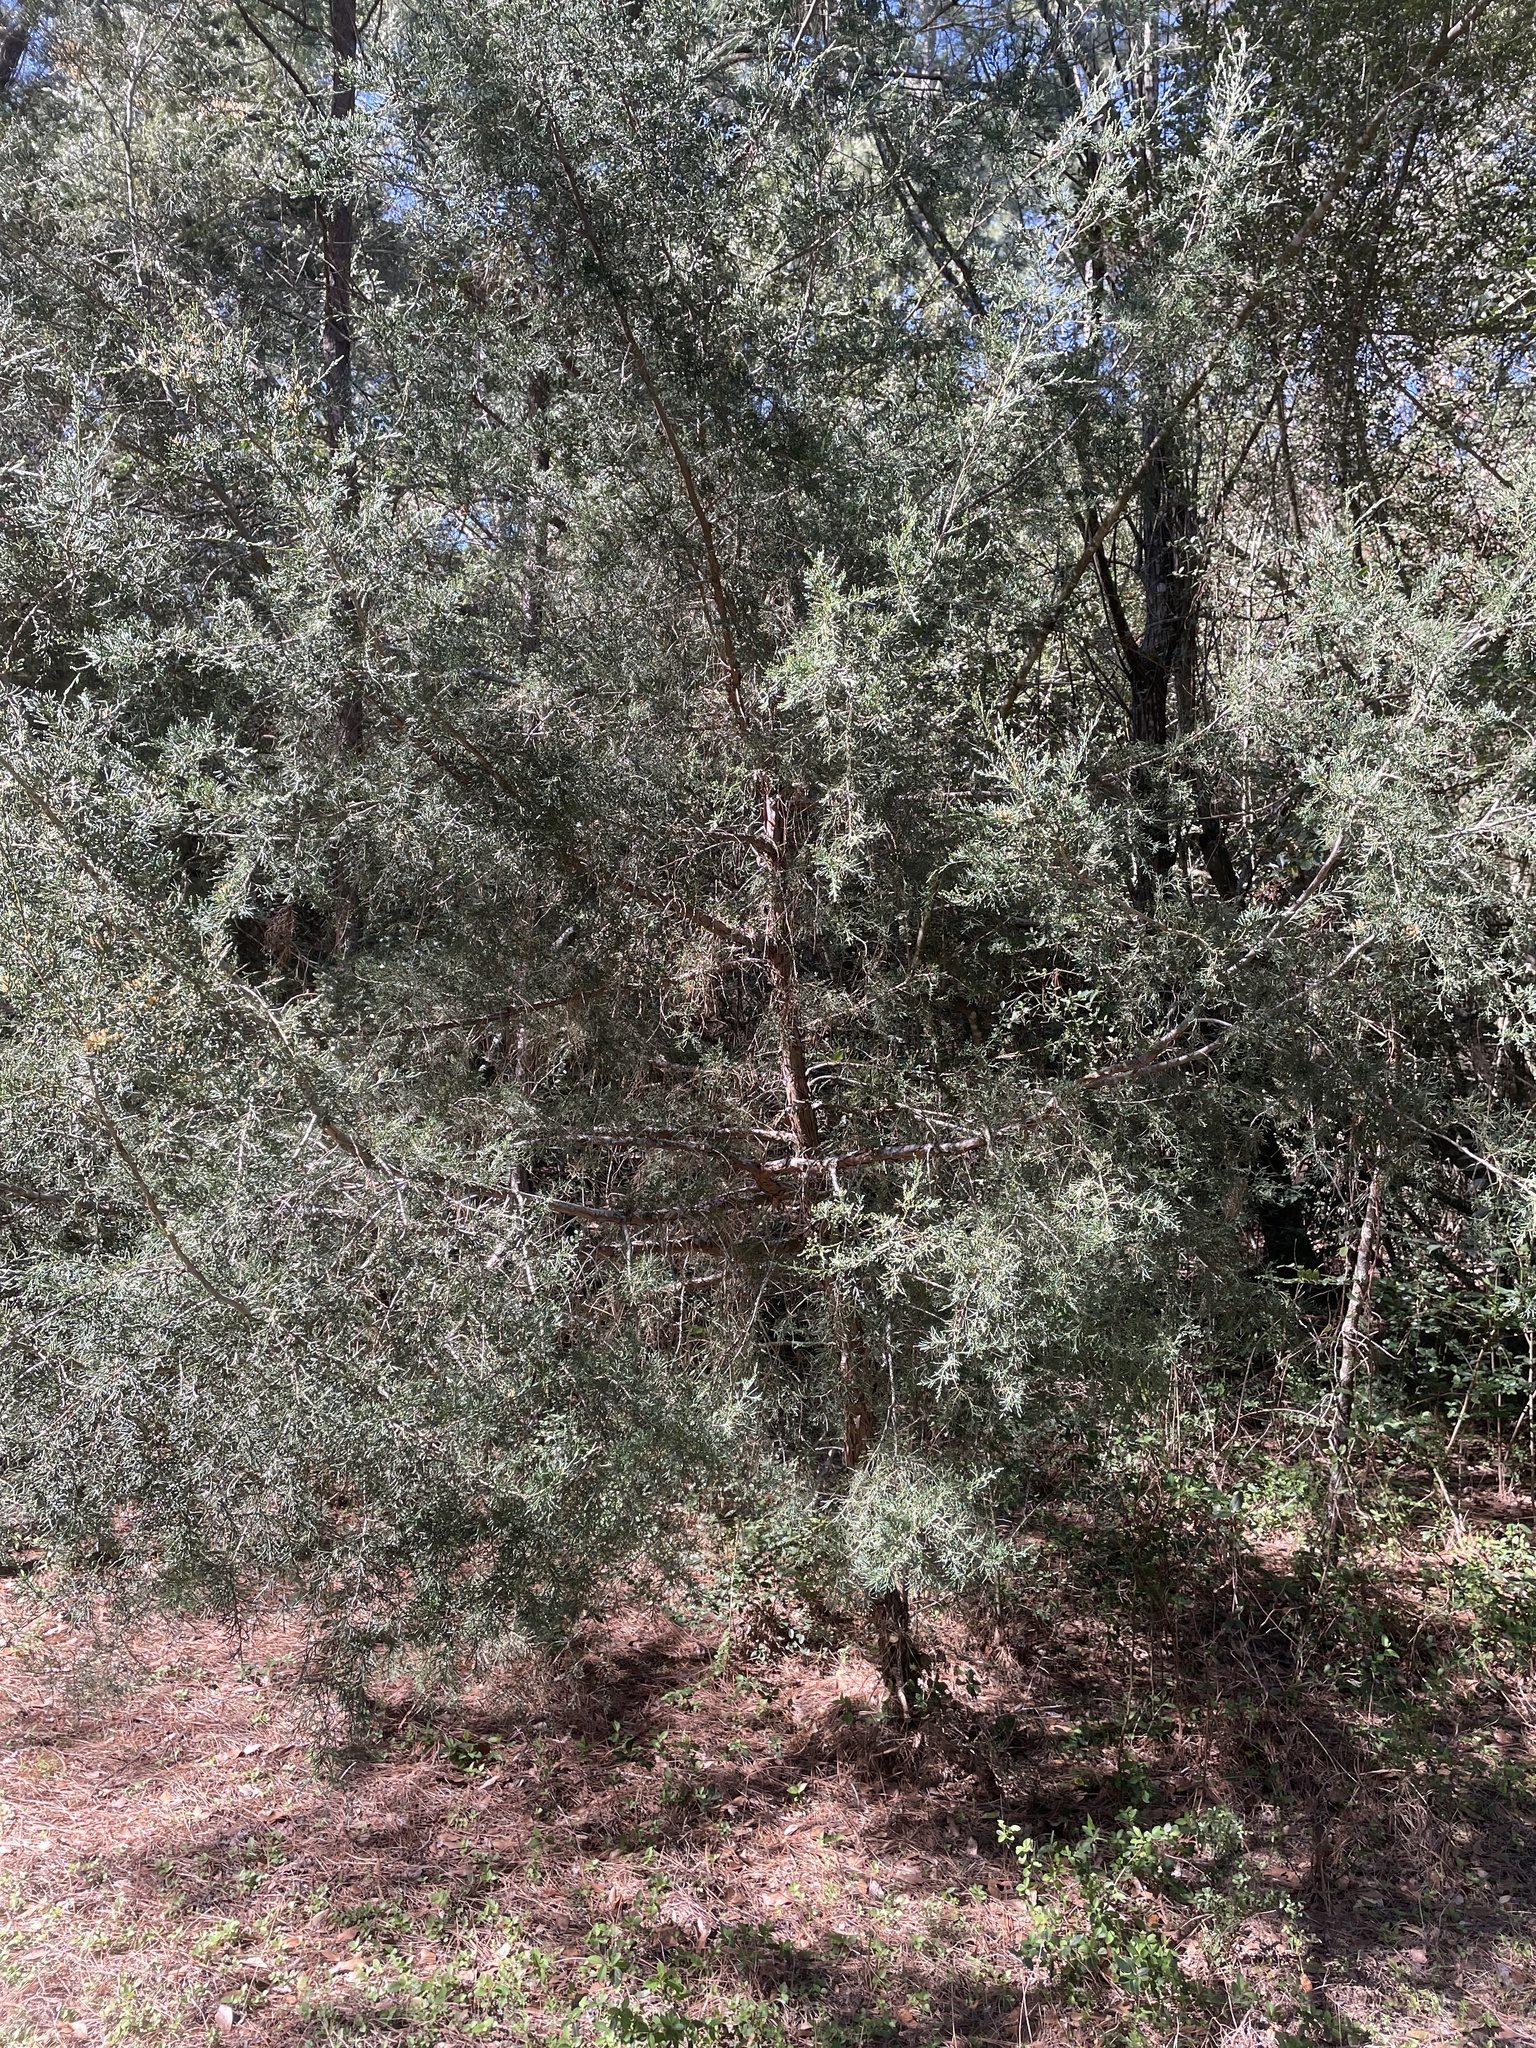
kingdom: Plantae
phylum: Tracheophyta
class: Pinopsida
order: Pinales
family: Cupressaceae
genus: Juniperus
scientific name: Juniperus virginiana
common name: Red juniper
